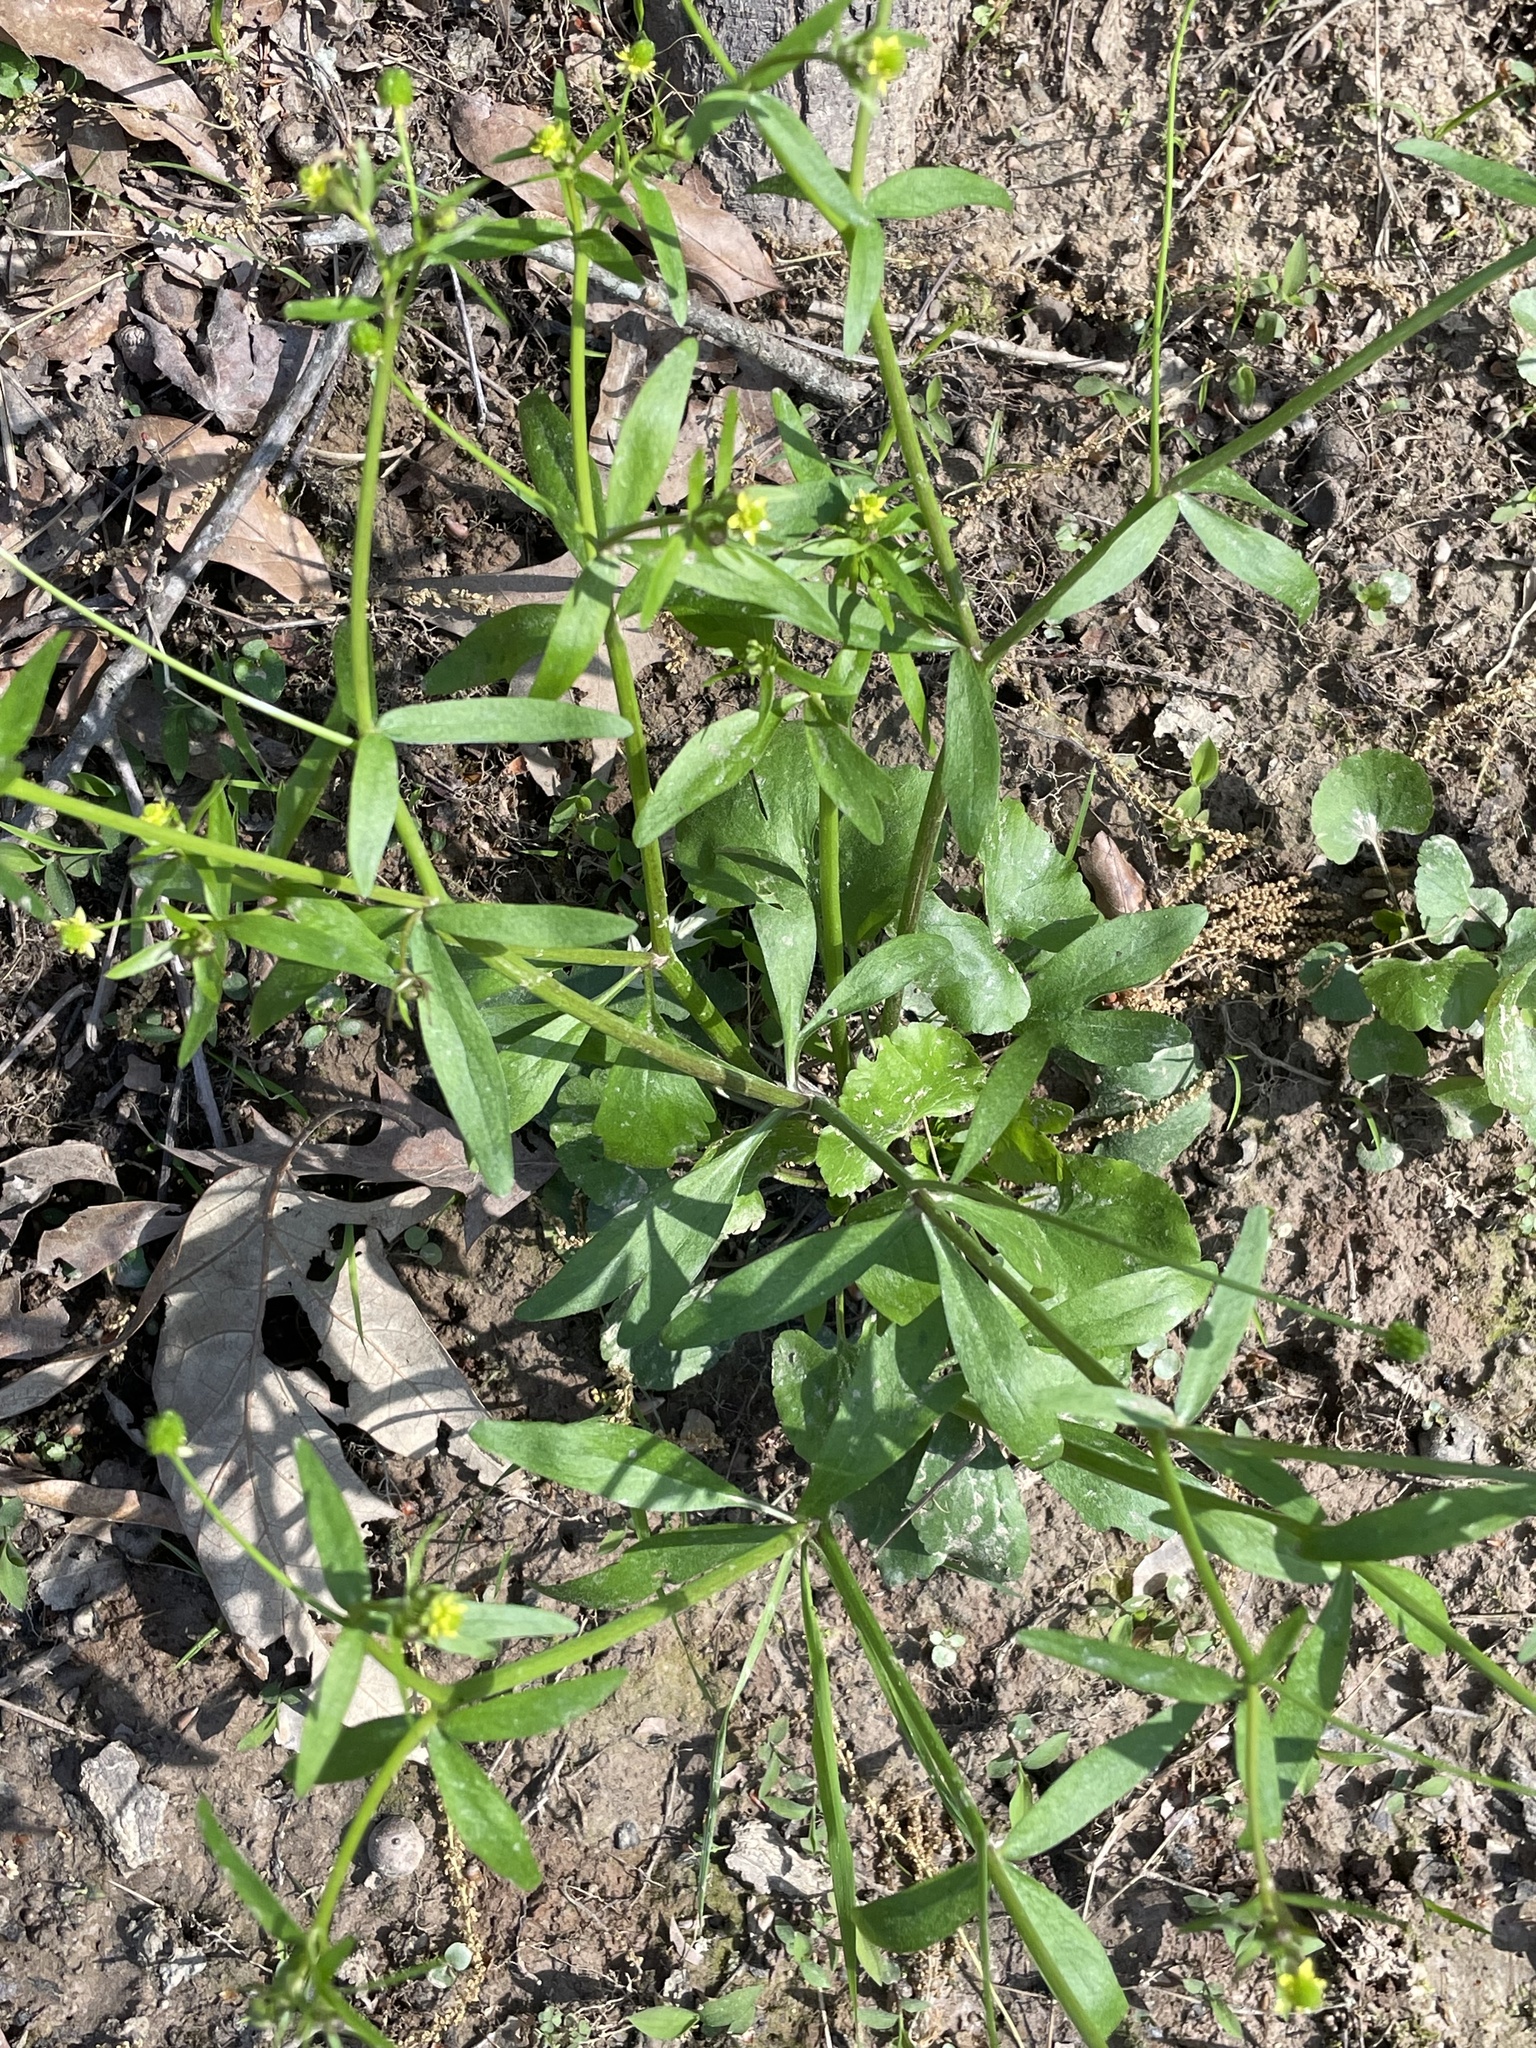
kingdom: Plantae
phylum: Tracheophyta
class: Magnoliopsida
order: Ranunculales
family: Ranunculaceae
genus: Ranunculus
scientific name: Ranunculus abortivus
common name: Early wood buttercup
